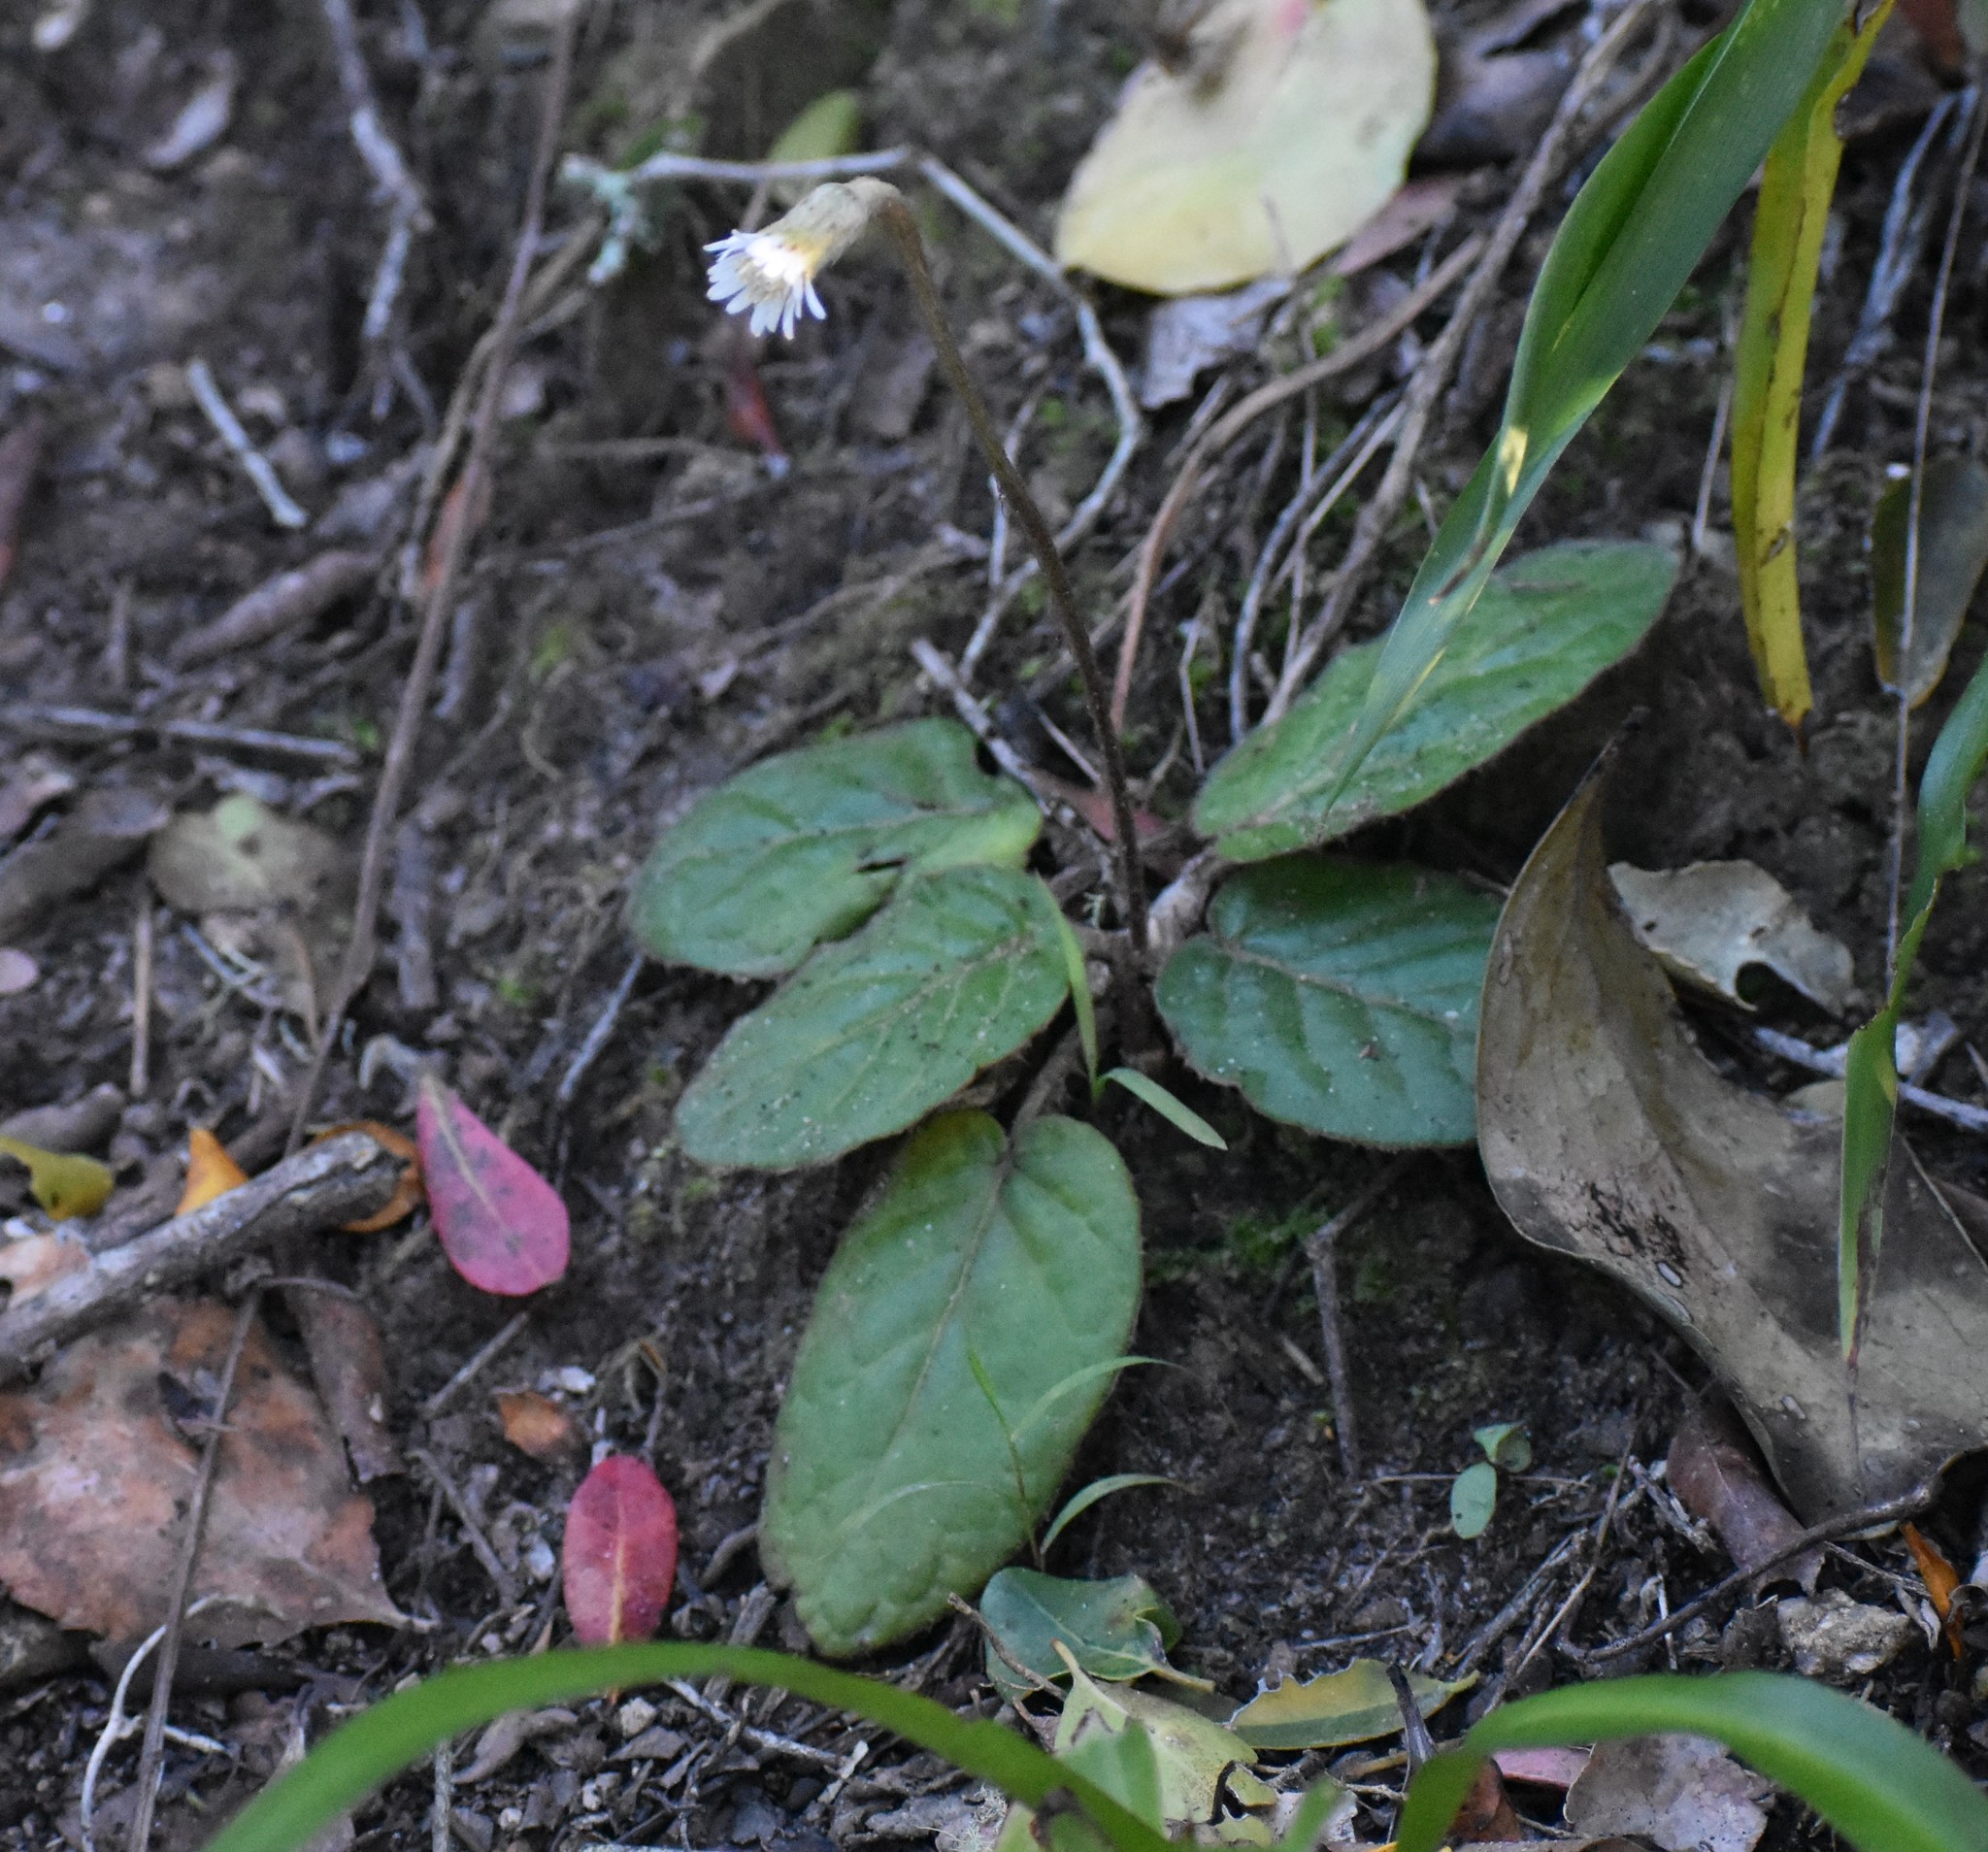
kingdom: Plantae
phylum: Tracheophyta
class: Magnoliopsida
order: Asterales
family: Asteraceae
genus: Piloselloides
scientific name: Piloselloides cordata
